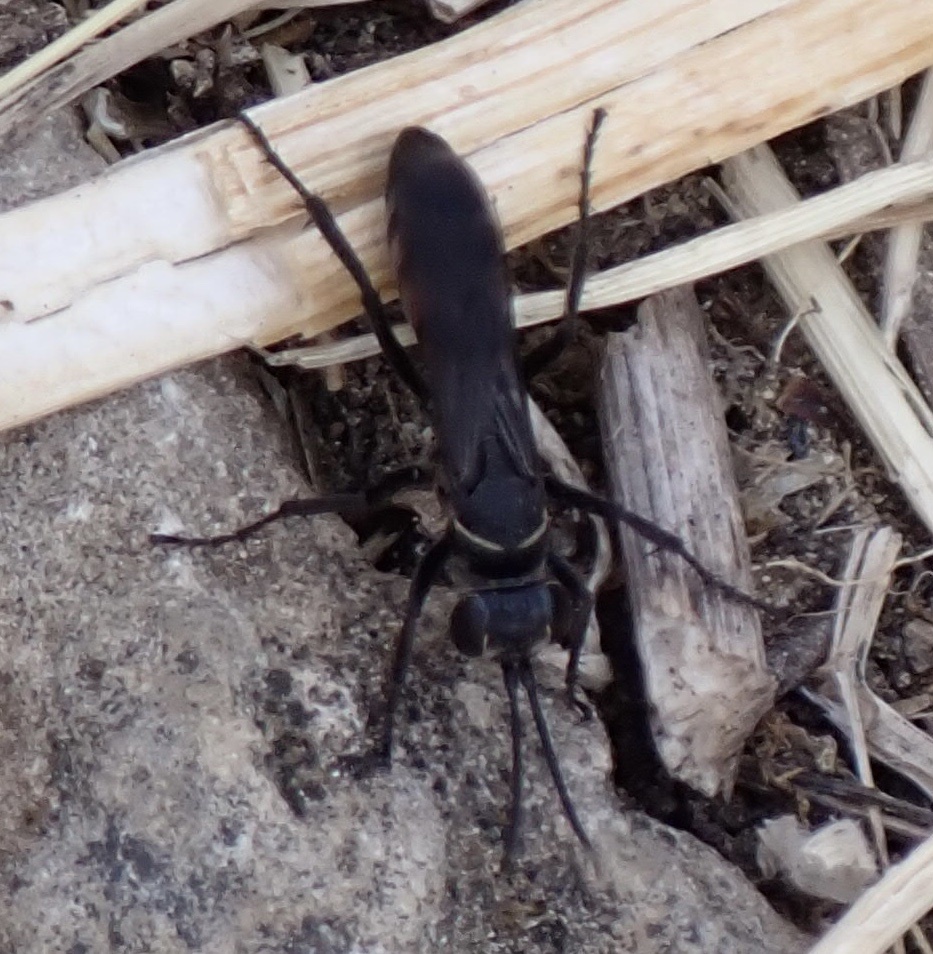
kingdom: Animalia
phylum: Arthropoda
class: Insecta
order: Hymenoptera
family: Pompilidae
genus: Anospilus
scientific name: Anospilus orbitalis
